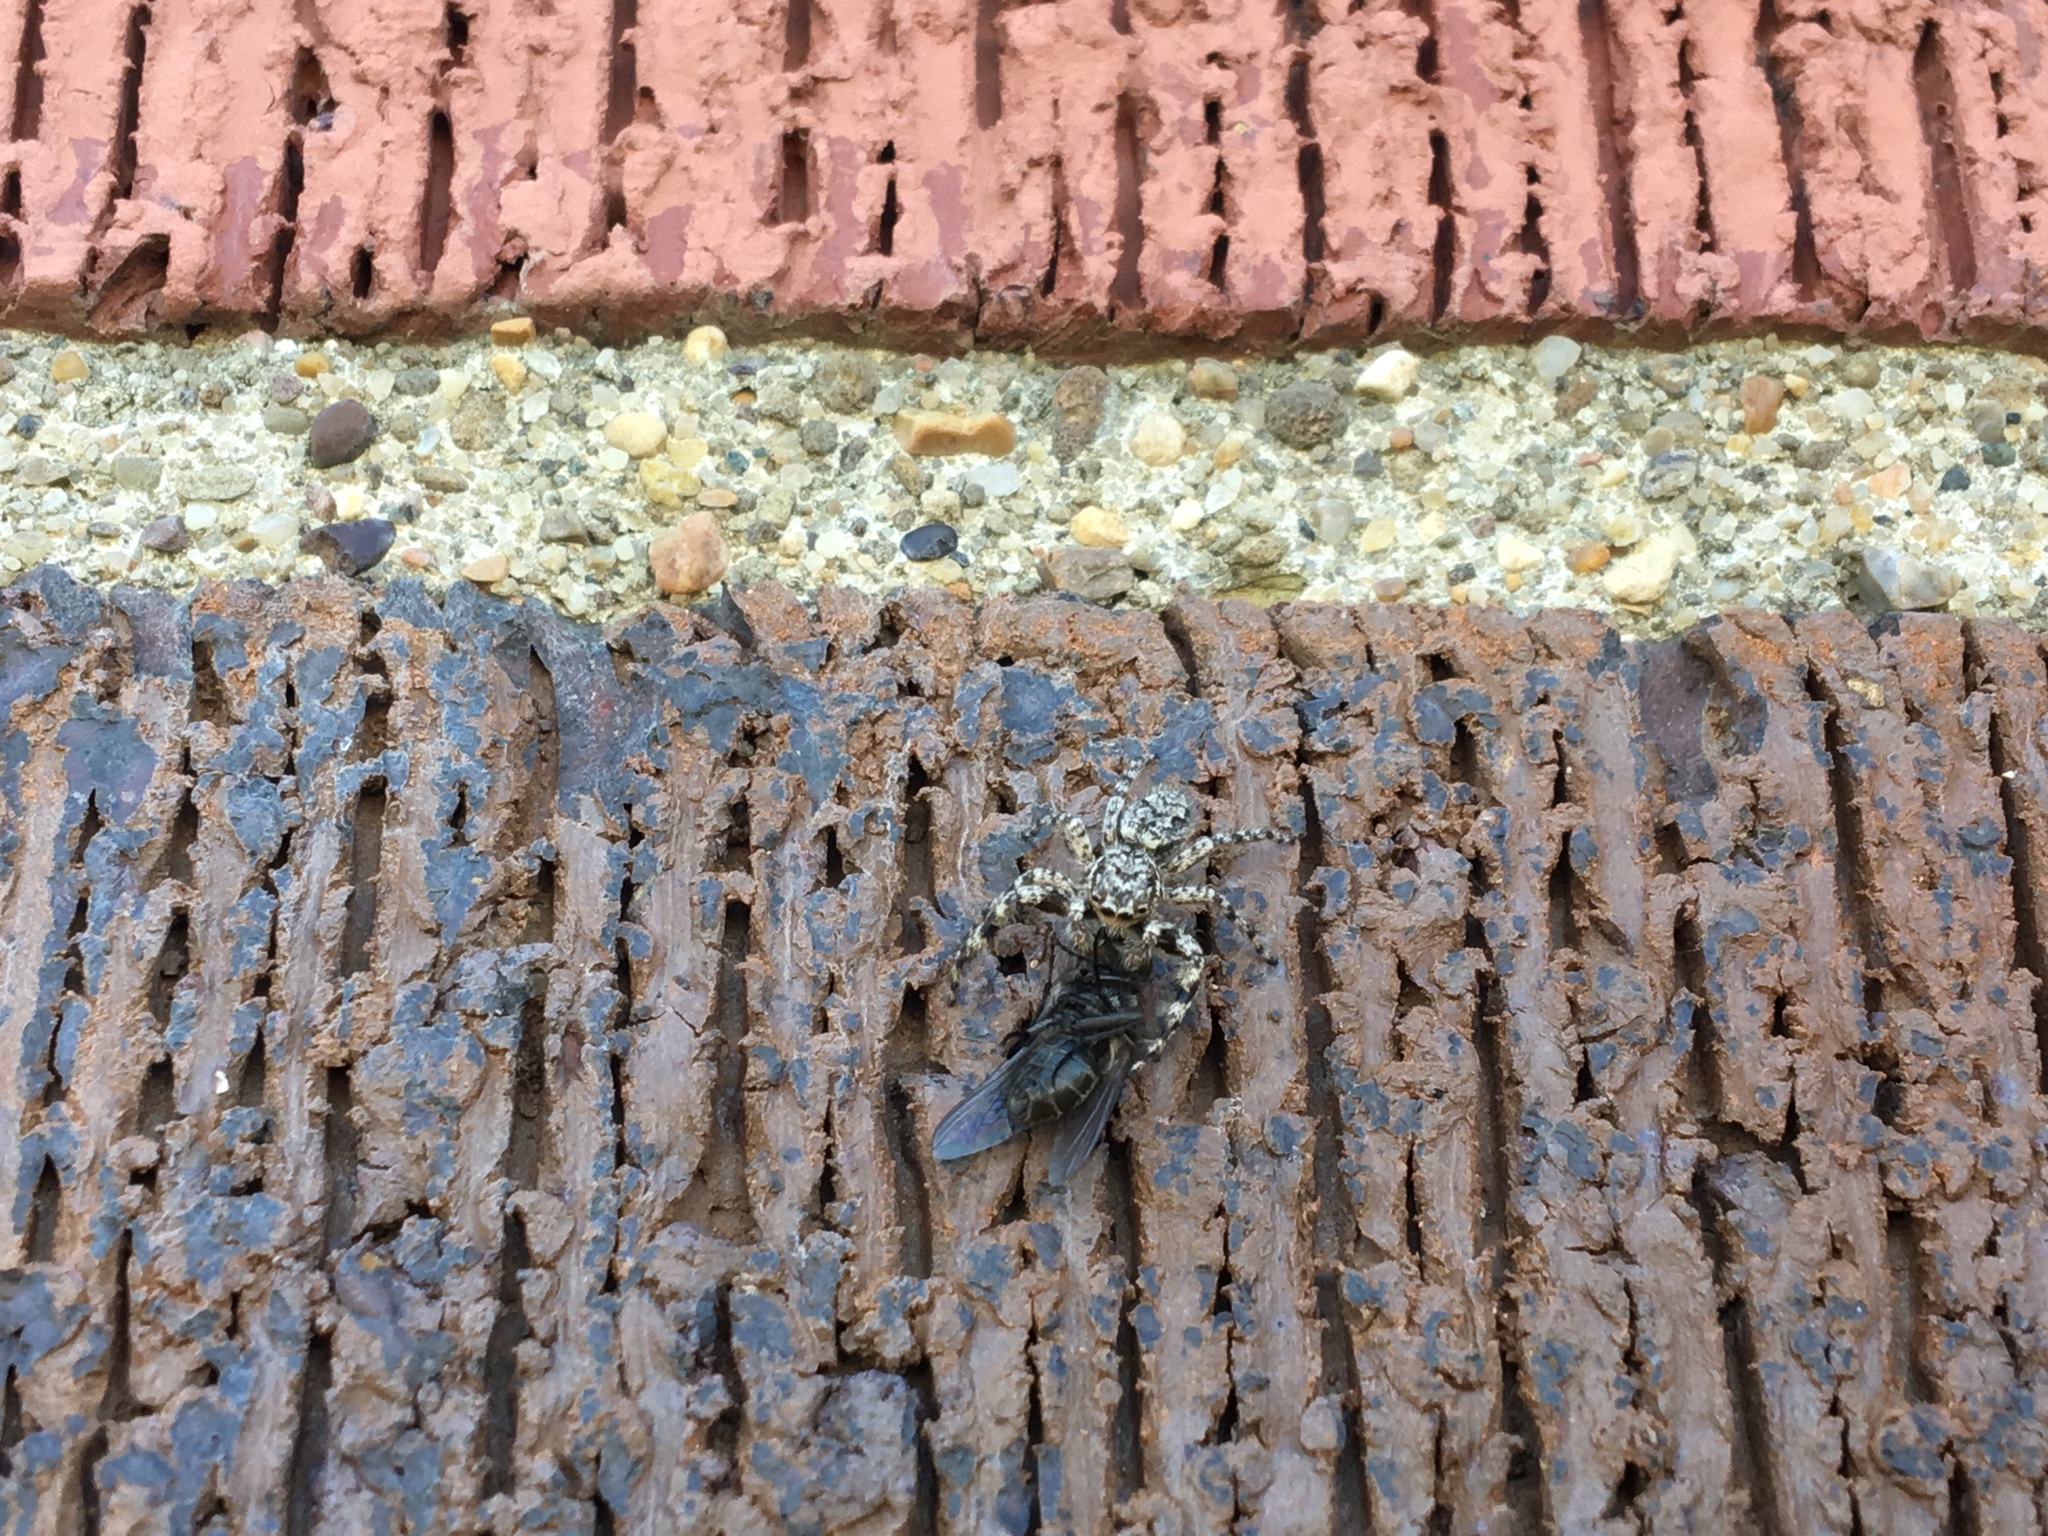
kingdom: Animalia
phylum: Arthropoda
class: Arachnida
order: Araneae
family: Salticidae
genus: Platycryptus
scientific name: Platycryptus undatus
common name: Tan jumping spider
